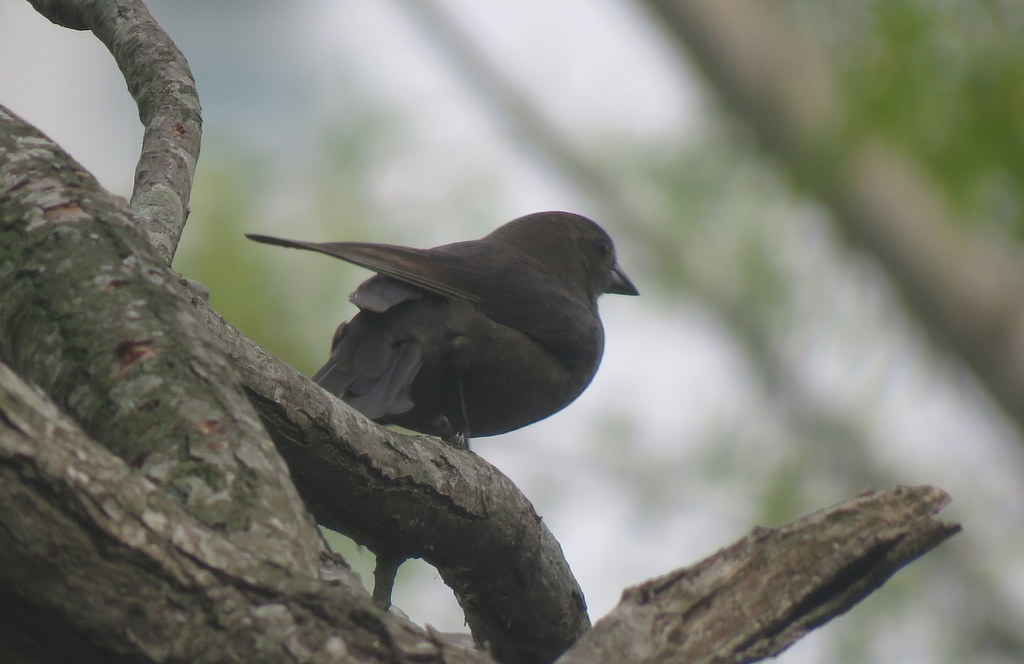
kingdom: Animalia
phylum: Chordata
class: Aves
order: Passeriformes
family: Icteridae
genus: Molothrus
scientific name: Molothrus bonariensis
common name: Shiny cowbird
